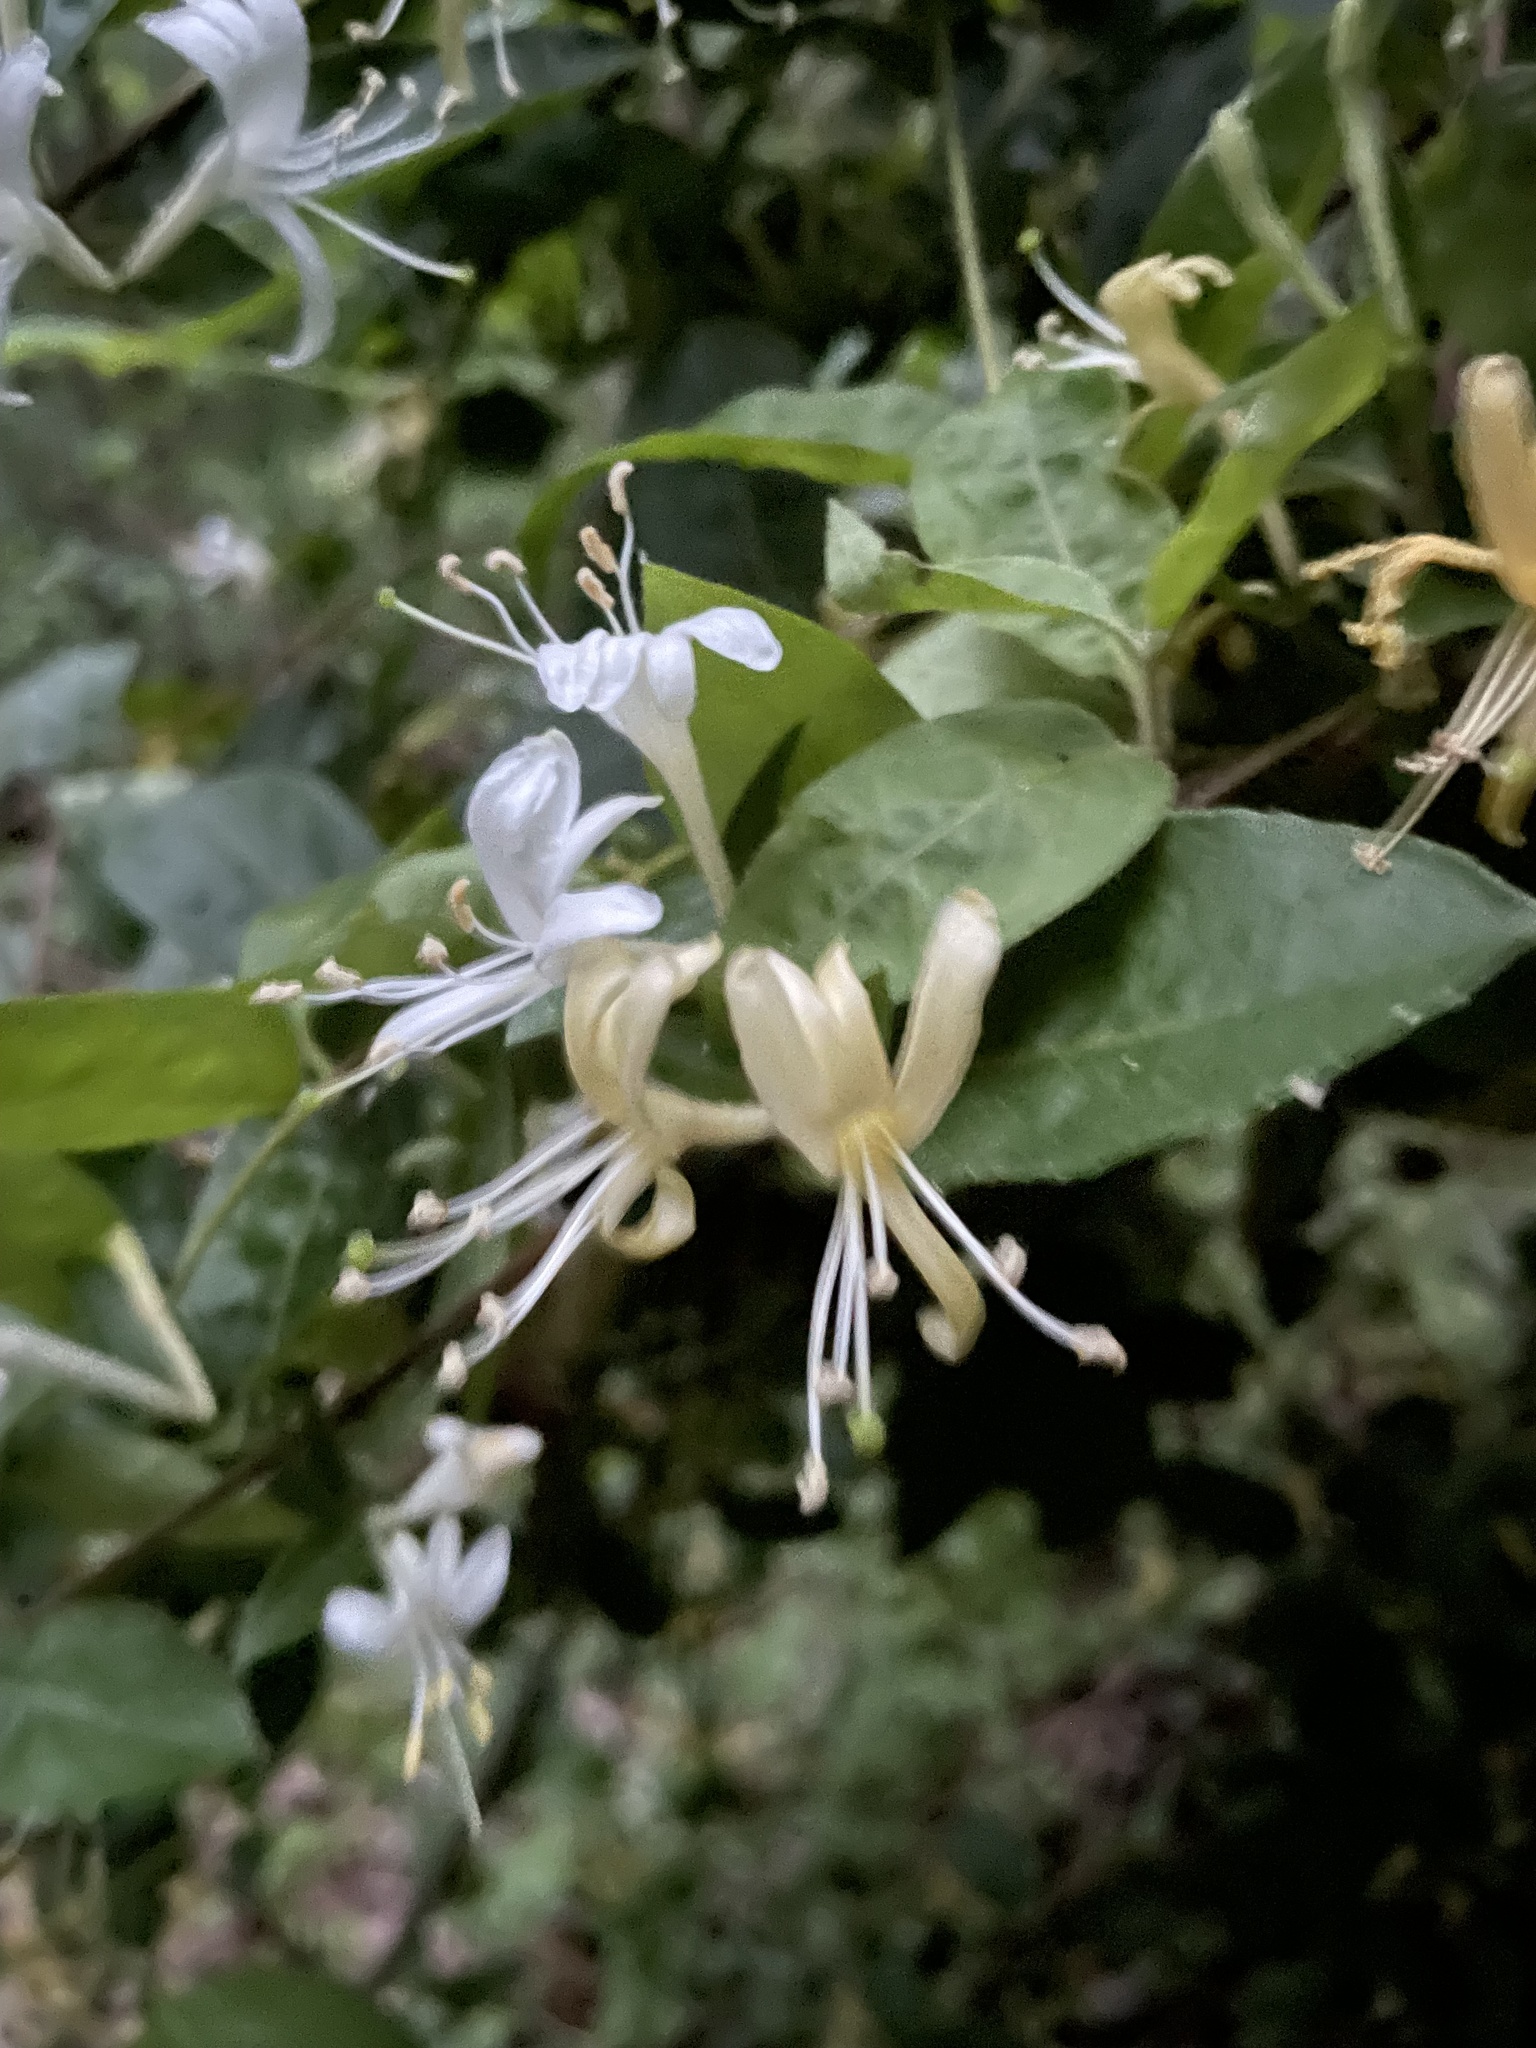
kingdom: Plantae
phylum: Tracheophyta
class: Magnoliopsida
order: Dipsacales
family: Caprifoliaceae
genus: Lonicera
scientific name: Lonicera japonica
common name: Japanese honeysuckle
